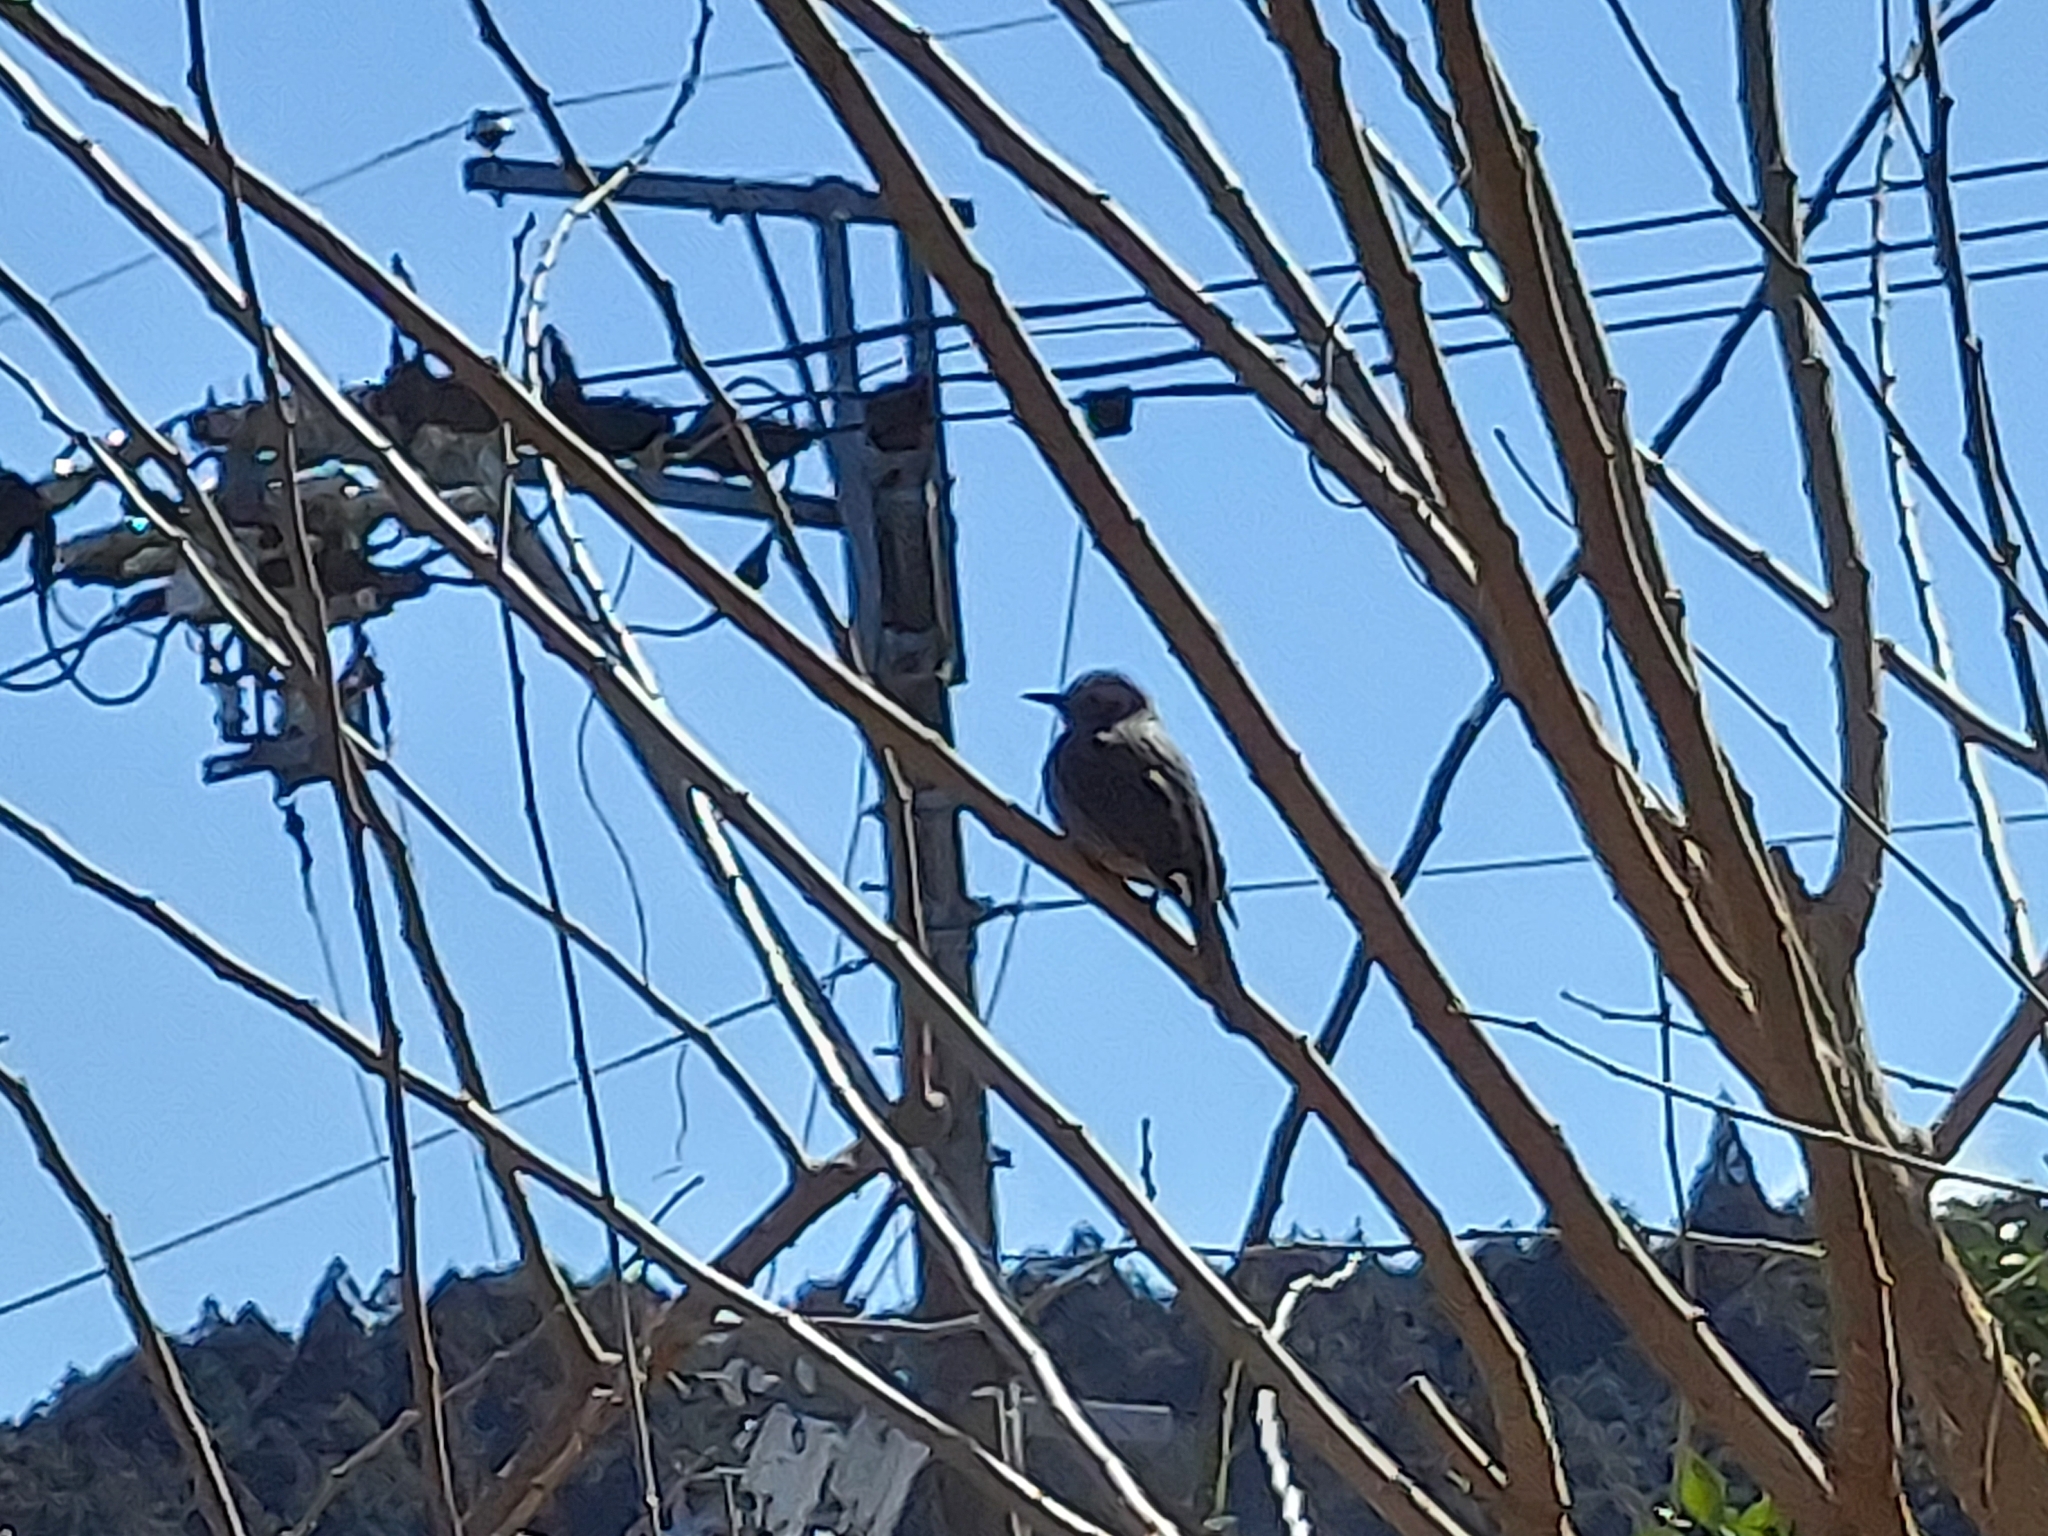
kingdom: Animalia
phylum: Chordata
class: Aves
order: Passeriformes
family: Pycnonotidae
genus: Hypsipetes
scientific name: Hypsipetes amaurotis
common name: Brown-eared bulbul
